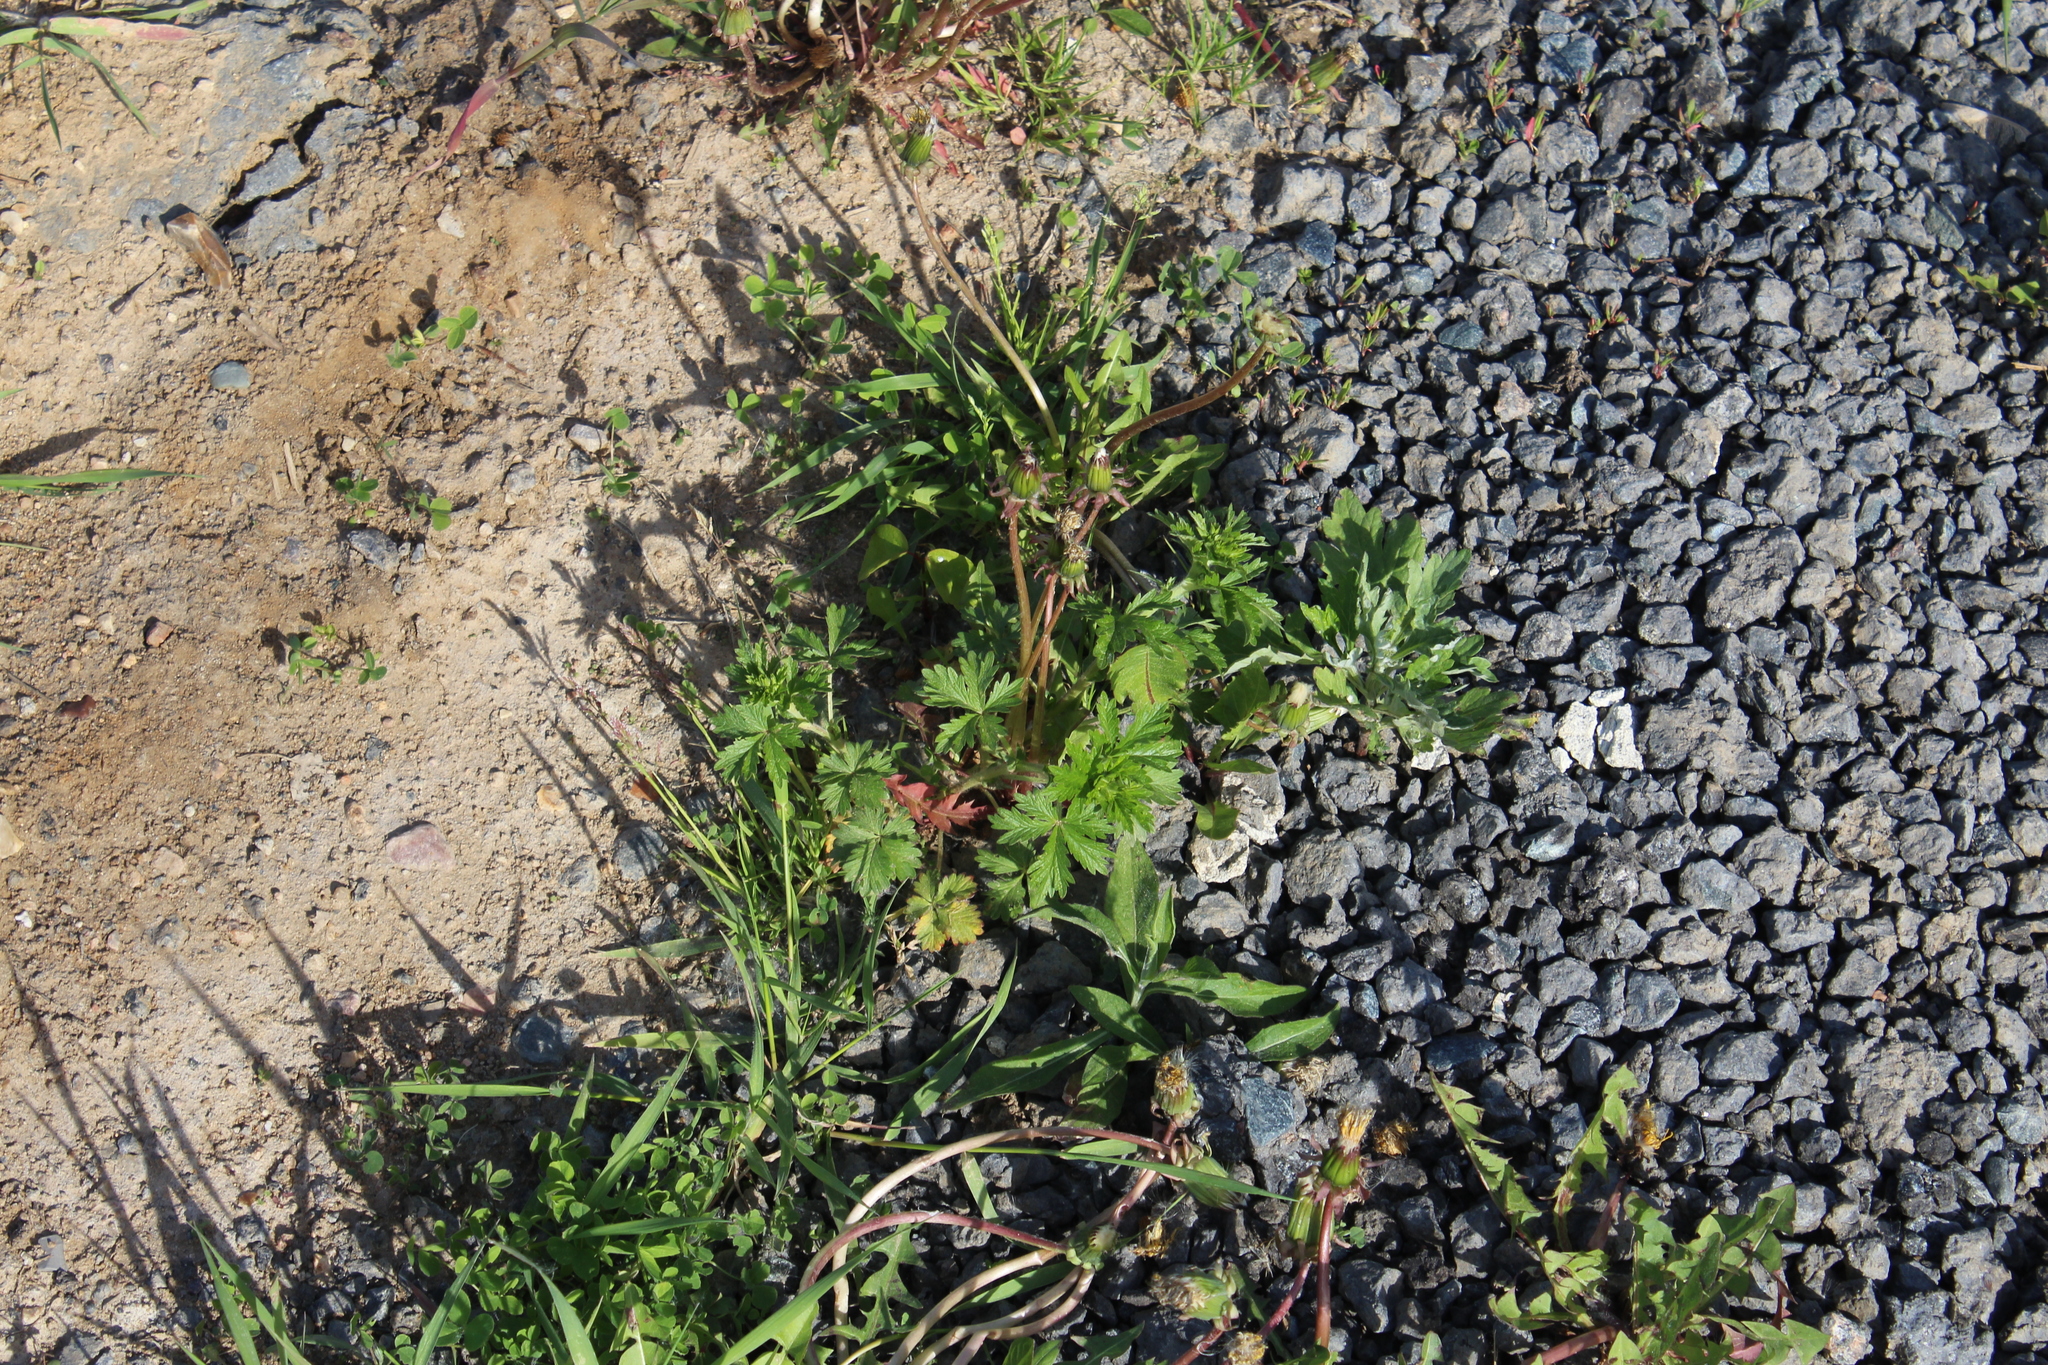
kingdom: Plantae
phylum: Tracheophyta
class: Magnoliopsida
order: Rosales
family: Rosaceae
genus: Potentilla
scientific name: Potentilla intermedia
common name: Downy cinquefoil
